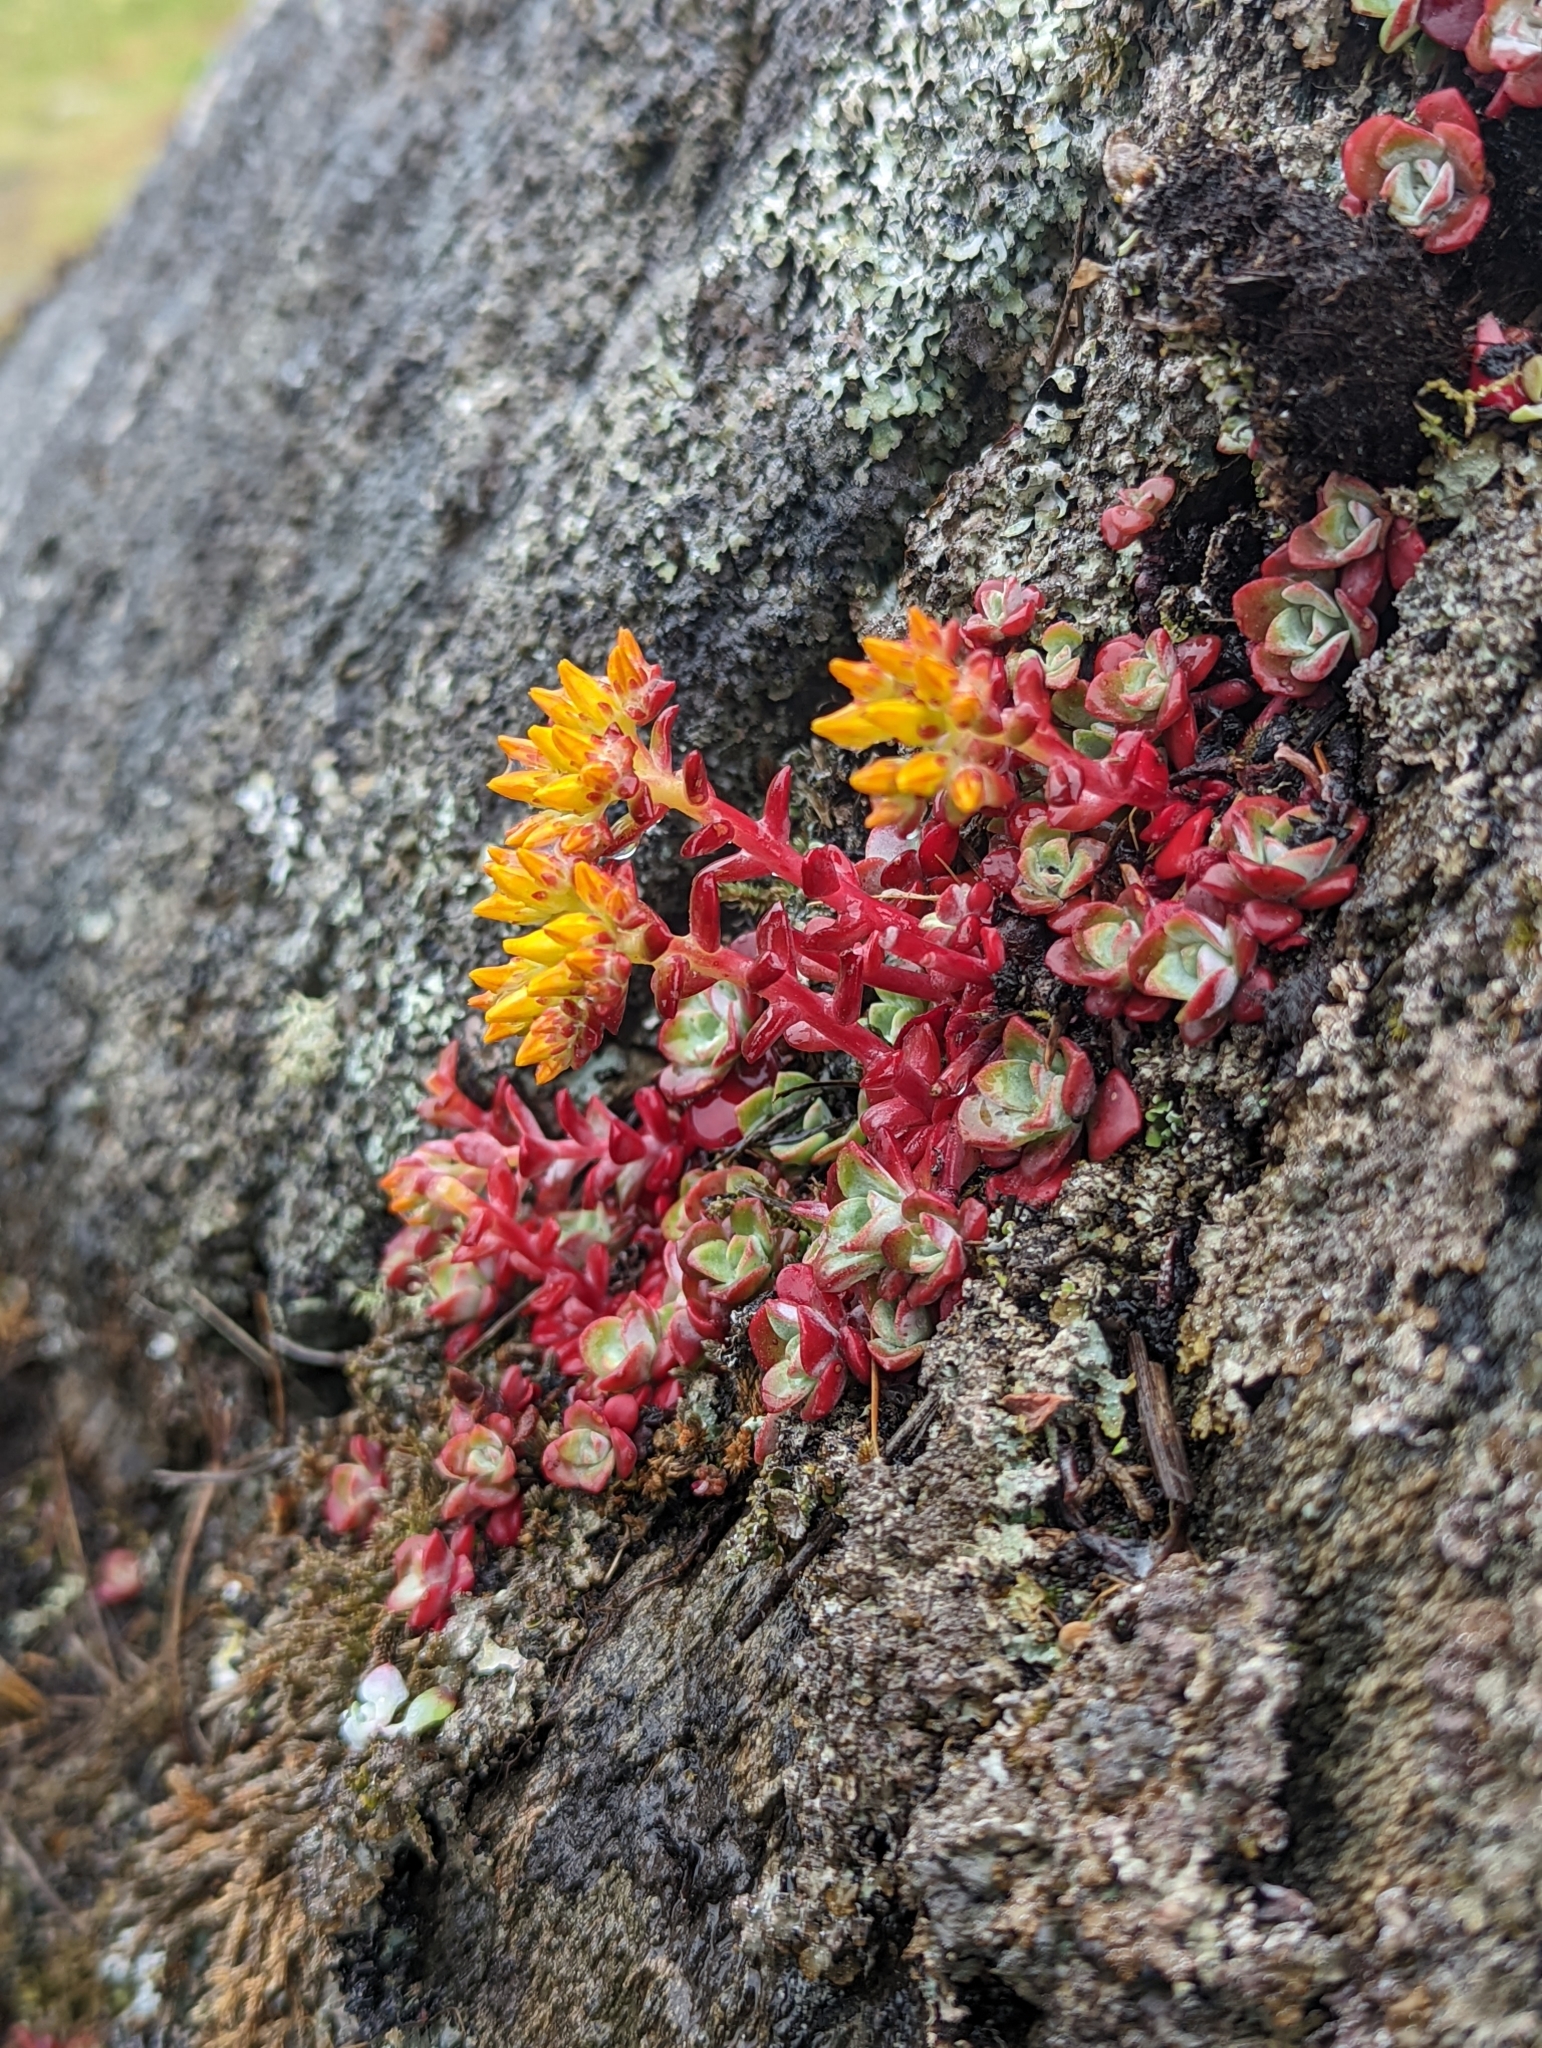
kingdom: Plantae
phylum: Tracheophyta
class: Magnoliopsida
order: Saxifragales
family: Crassulaceae
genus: Sedum
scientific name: Sedum spathulifolium
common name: Colorado stonecrop
